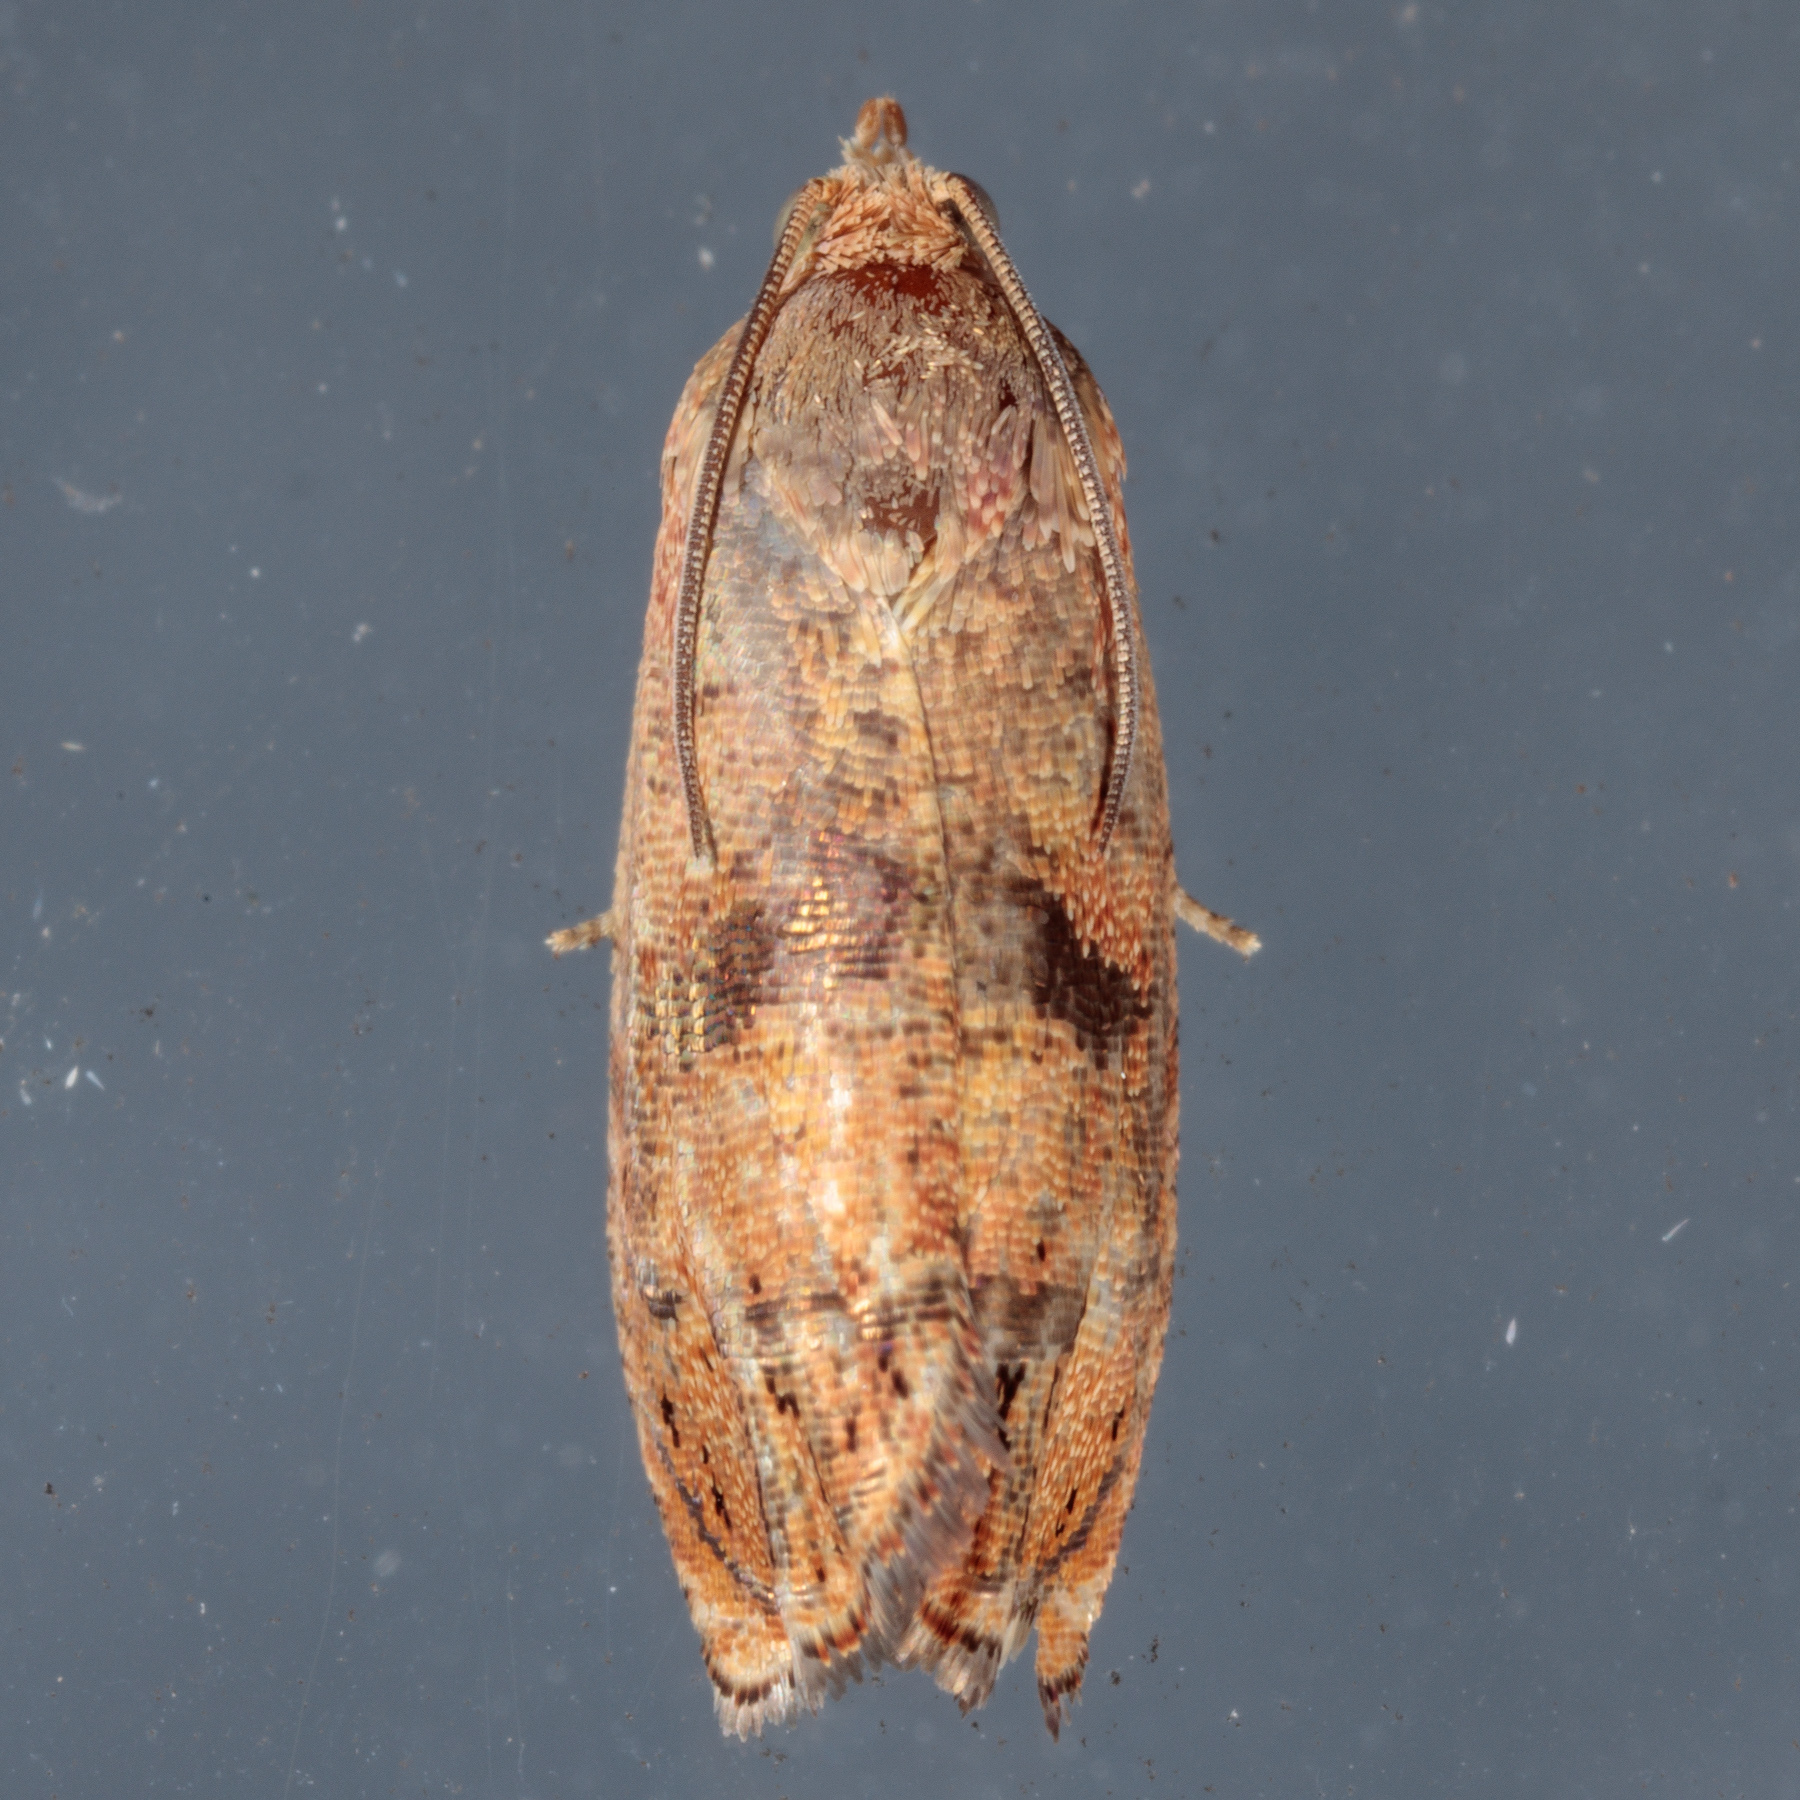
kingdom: Animalia
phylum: Arthropoda
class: Insecta
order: Lepidoptera
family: Tortricidae
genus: Cydia
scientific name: Cydia latiferreana
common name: Filbertworm moth
